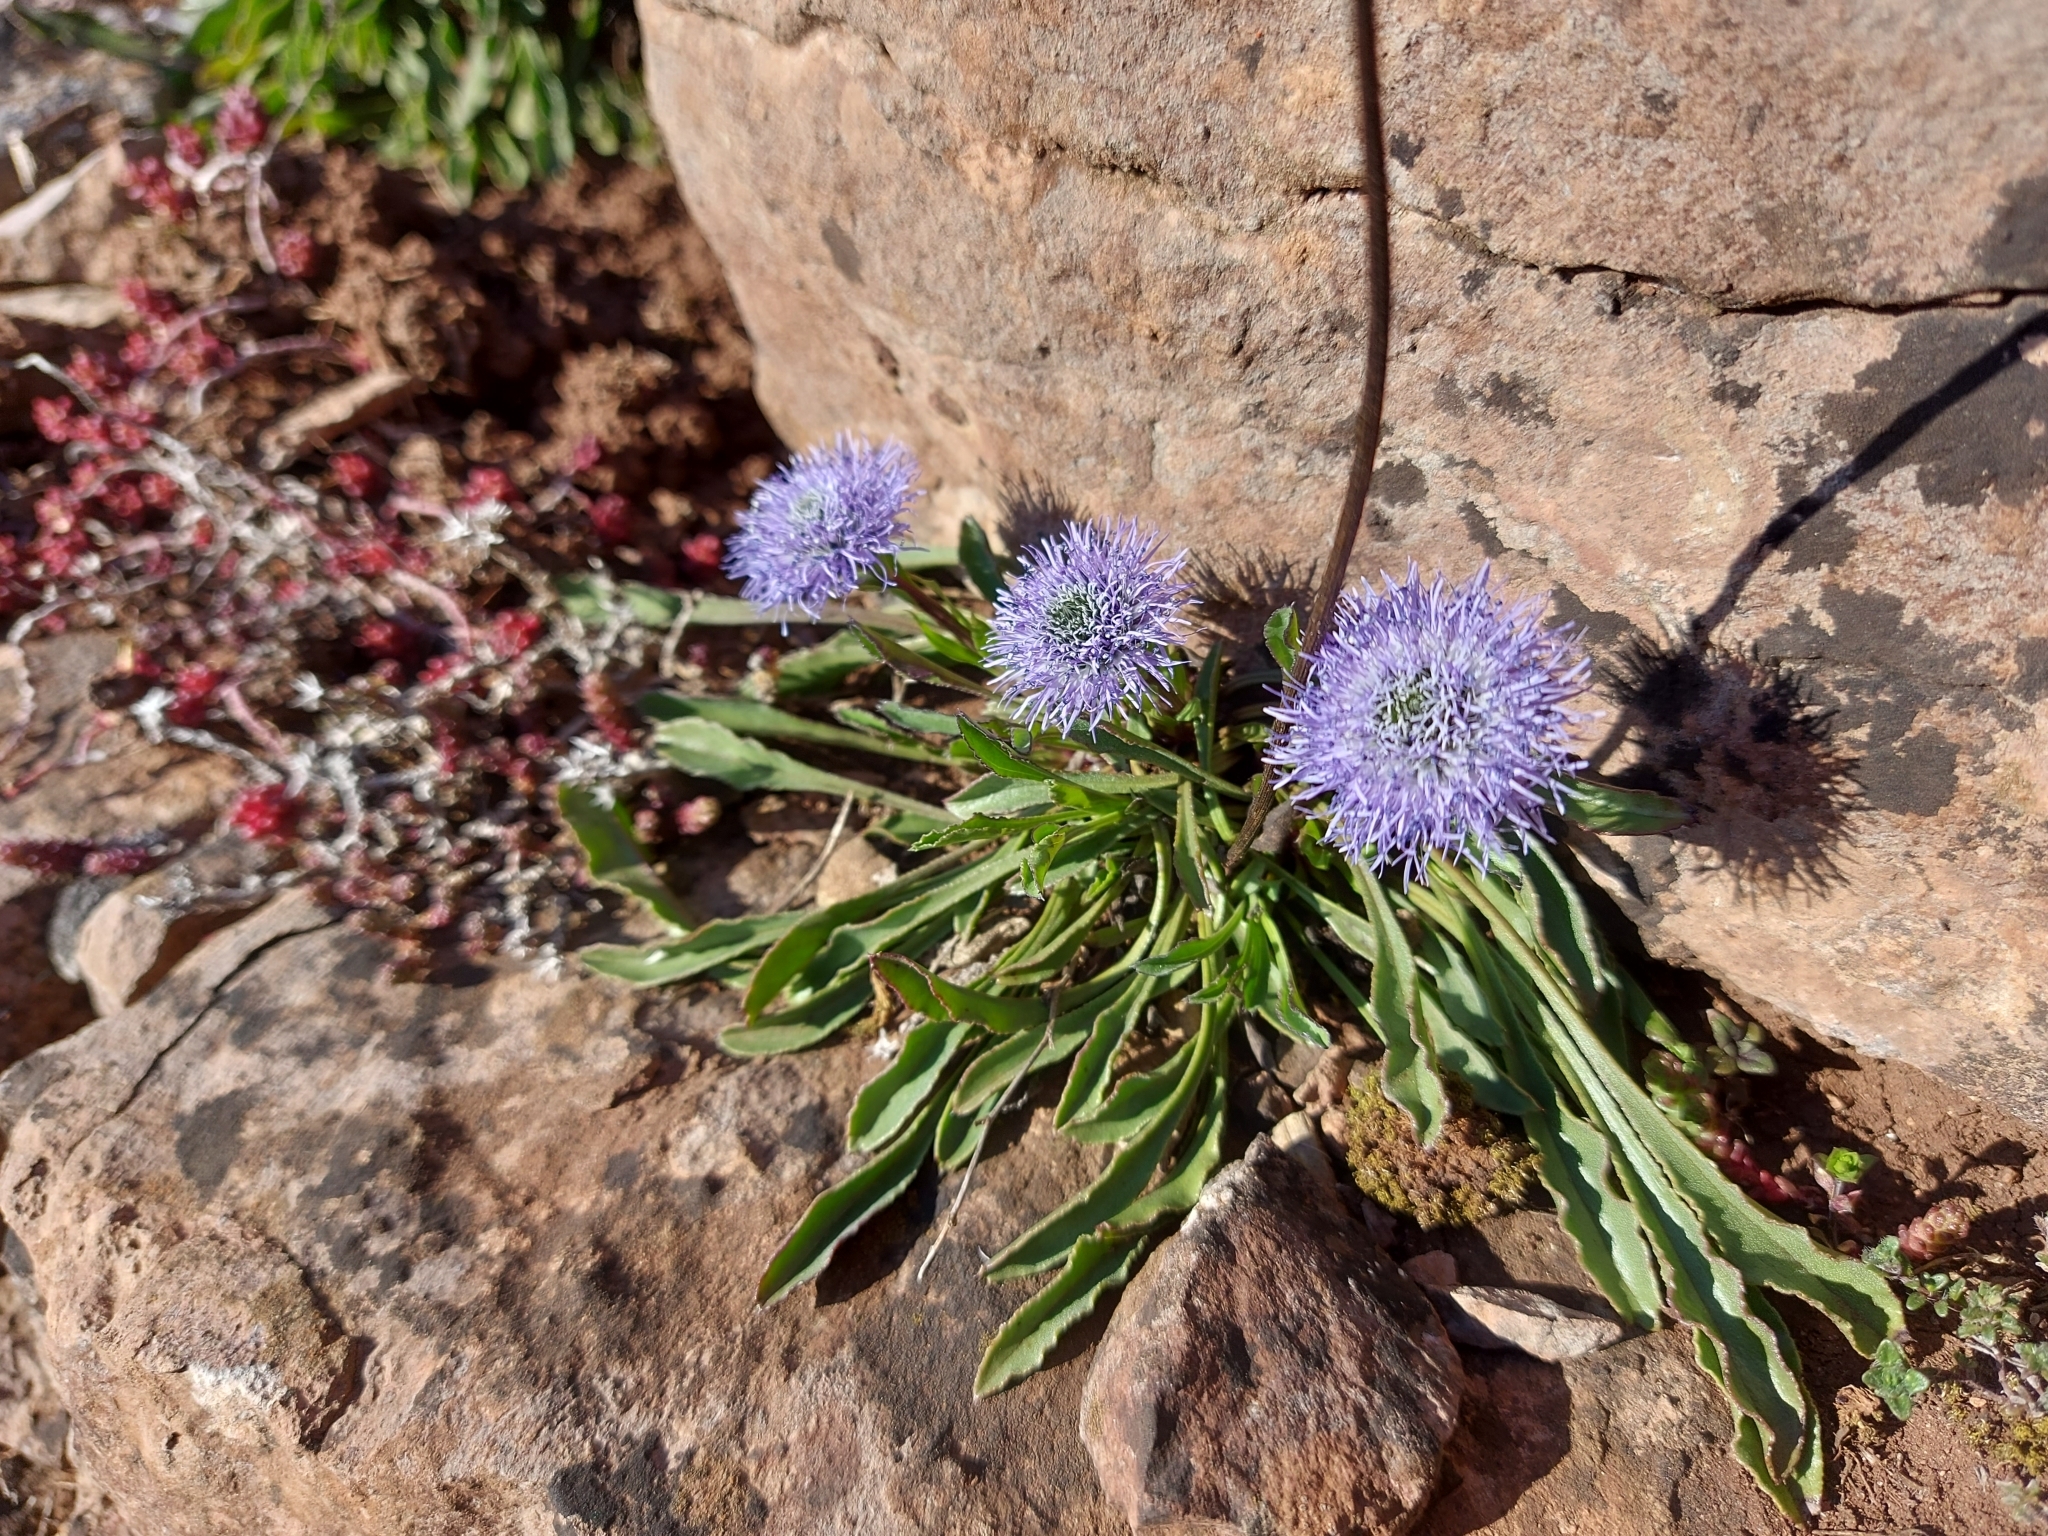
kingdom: Plantae
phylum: Tracheophyta
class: Magnoliopsida
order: Lamiales
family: Plantaginaceae
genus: Globularia
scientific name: Globularia vulgaris
